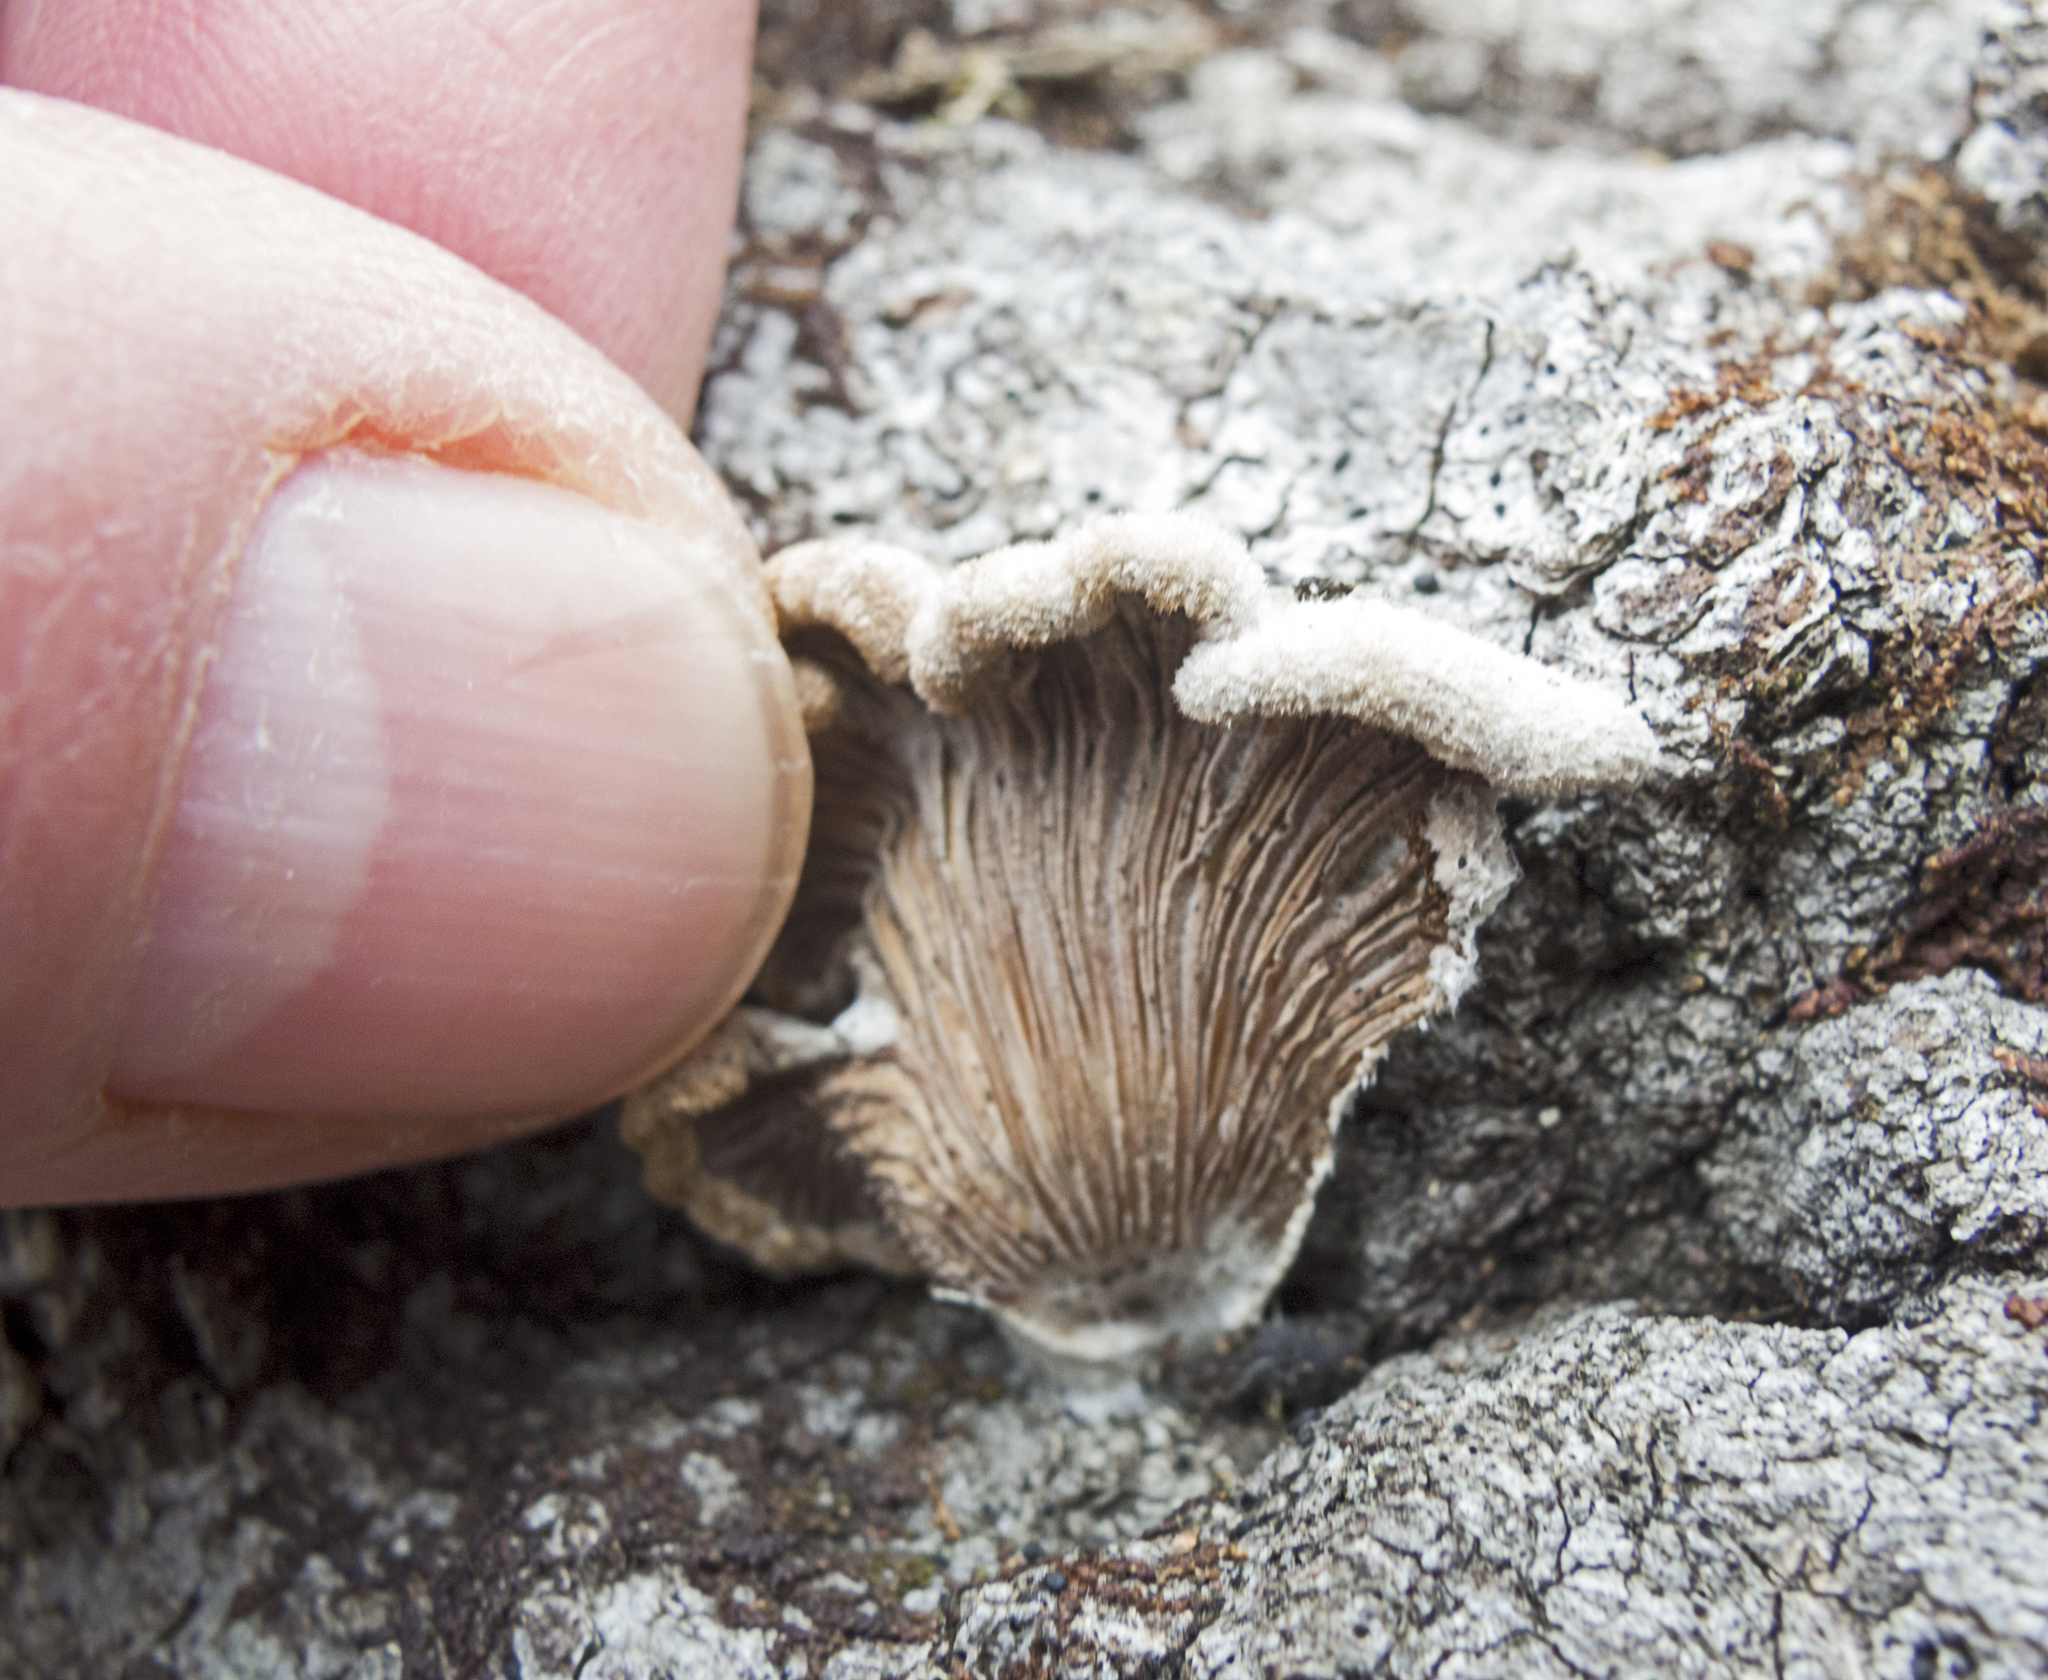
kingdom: Fungi
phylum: Basidiomycota
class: Agaricomycetes
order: Agaricales
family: Schizophyllaceae
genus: Schizophyllum
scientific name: Schizophyllum commune
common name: Common porecrust
